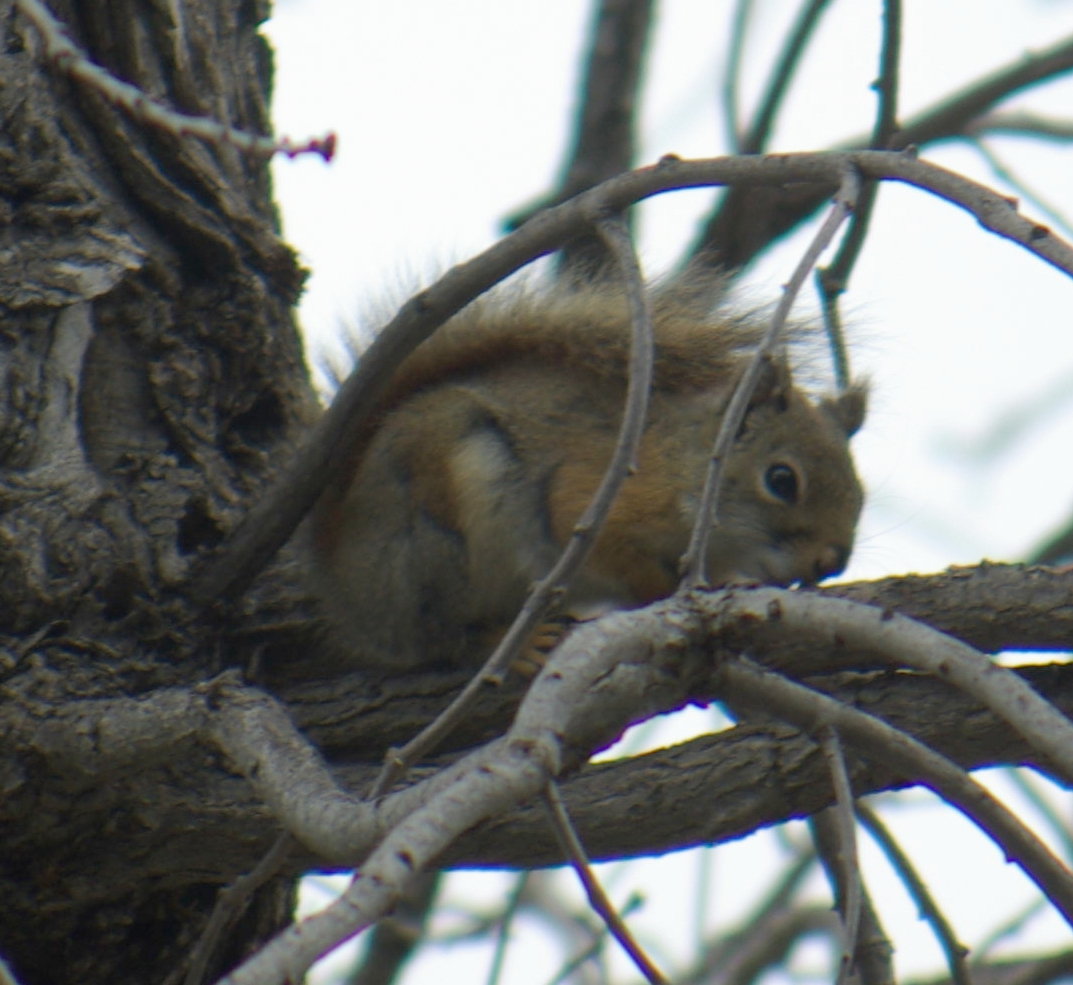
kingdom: Animalia
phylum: Chordata
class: Mammalia
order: Rodentia
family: Sciuridae
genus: Tamiasciurus
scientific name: Tamiasciurus hudsonicus
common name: Red squirrel
